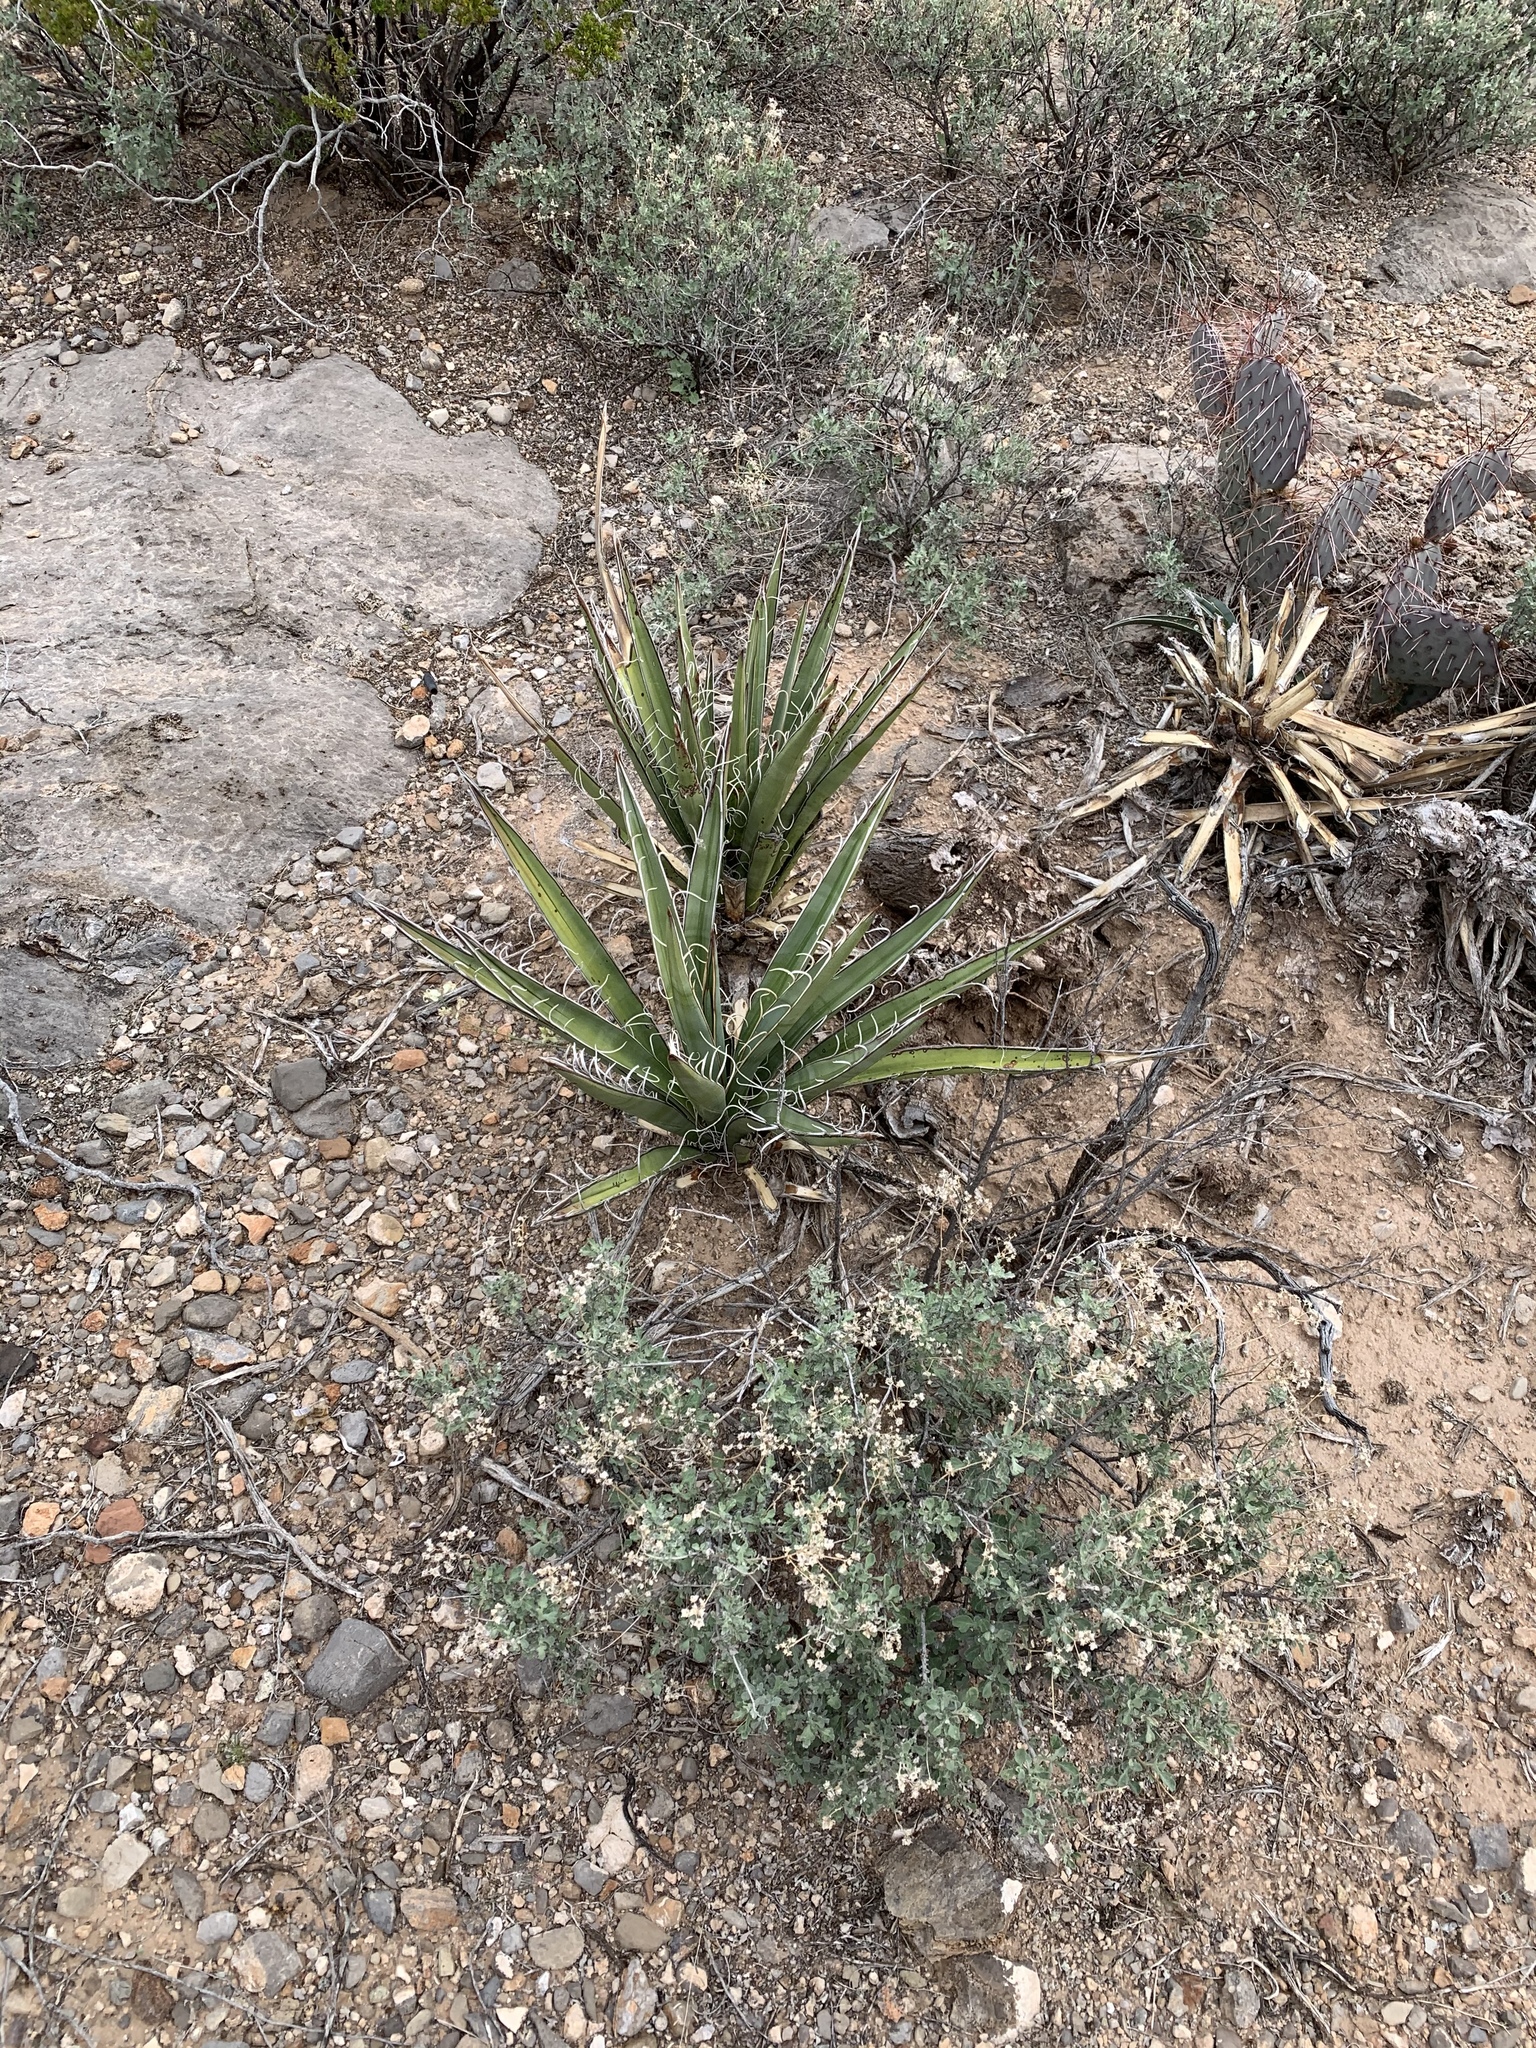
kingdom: Plantae
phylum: Tracheophyta
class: Liliopsida
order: Asparagales
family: Asparagaceae
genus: Yucca
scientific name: Yucca baccata
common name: Banana yucca
